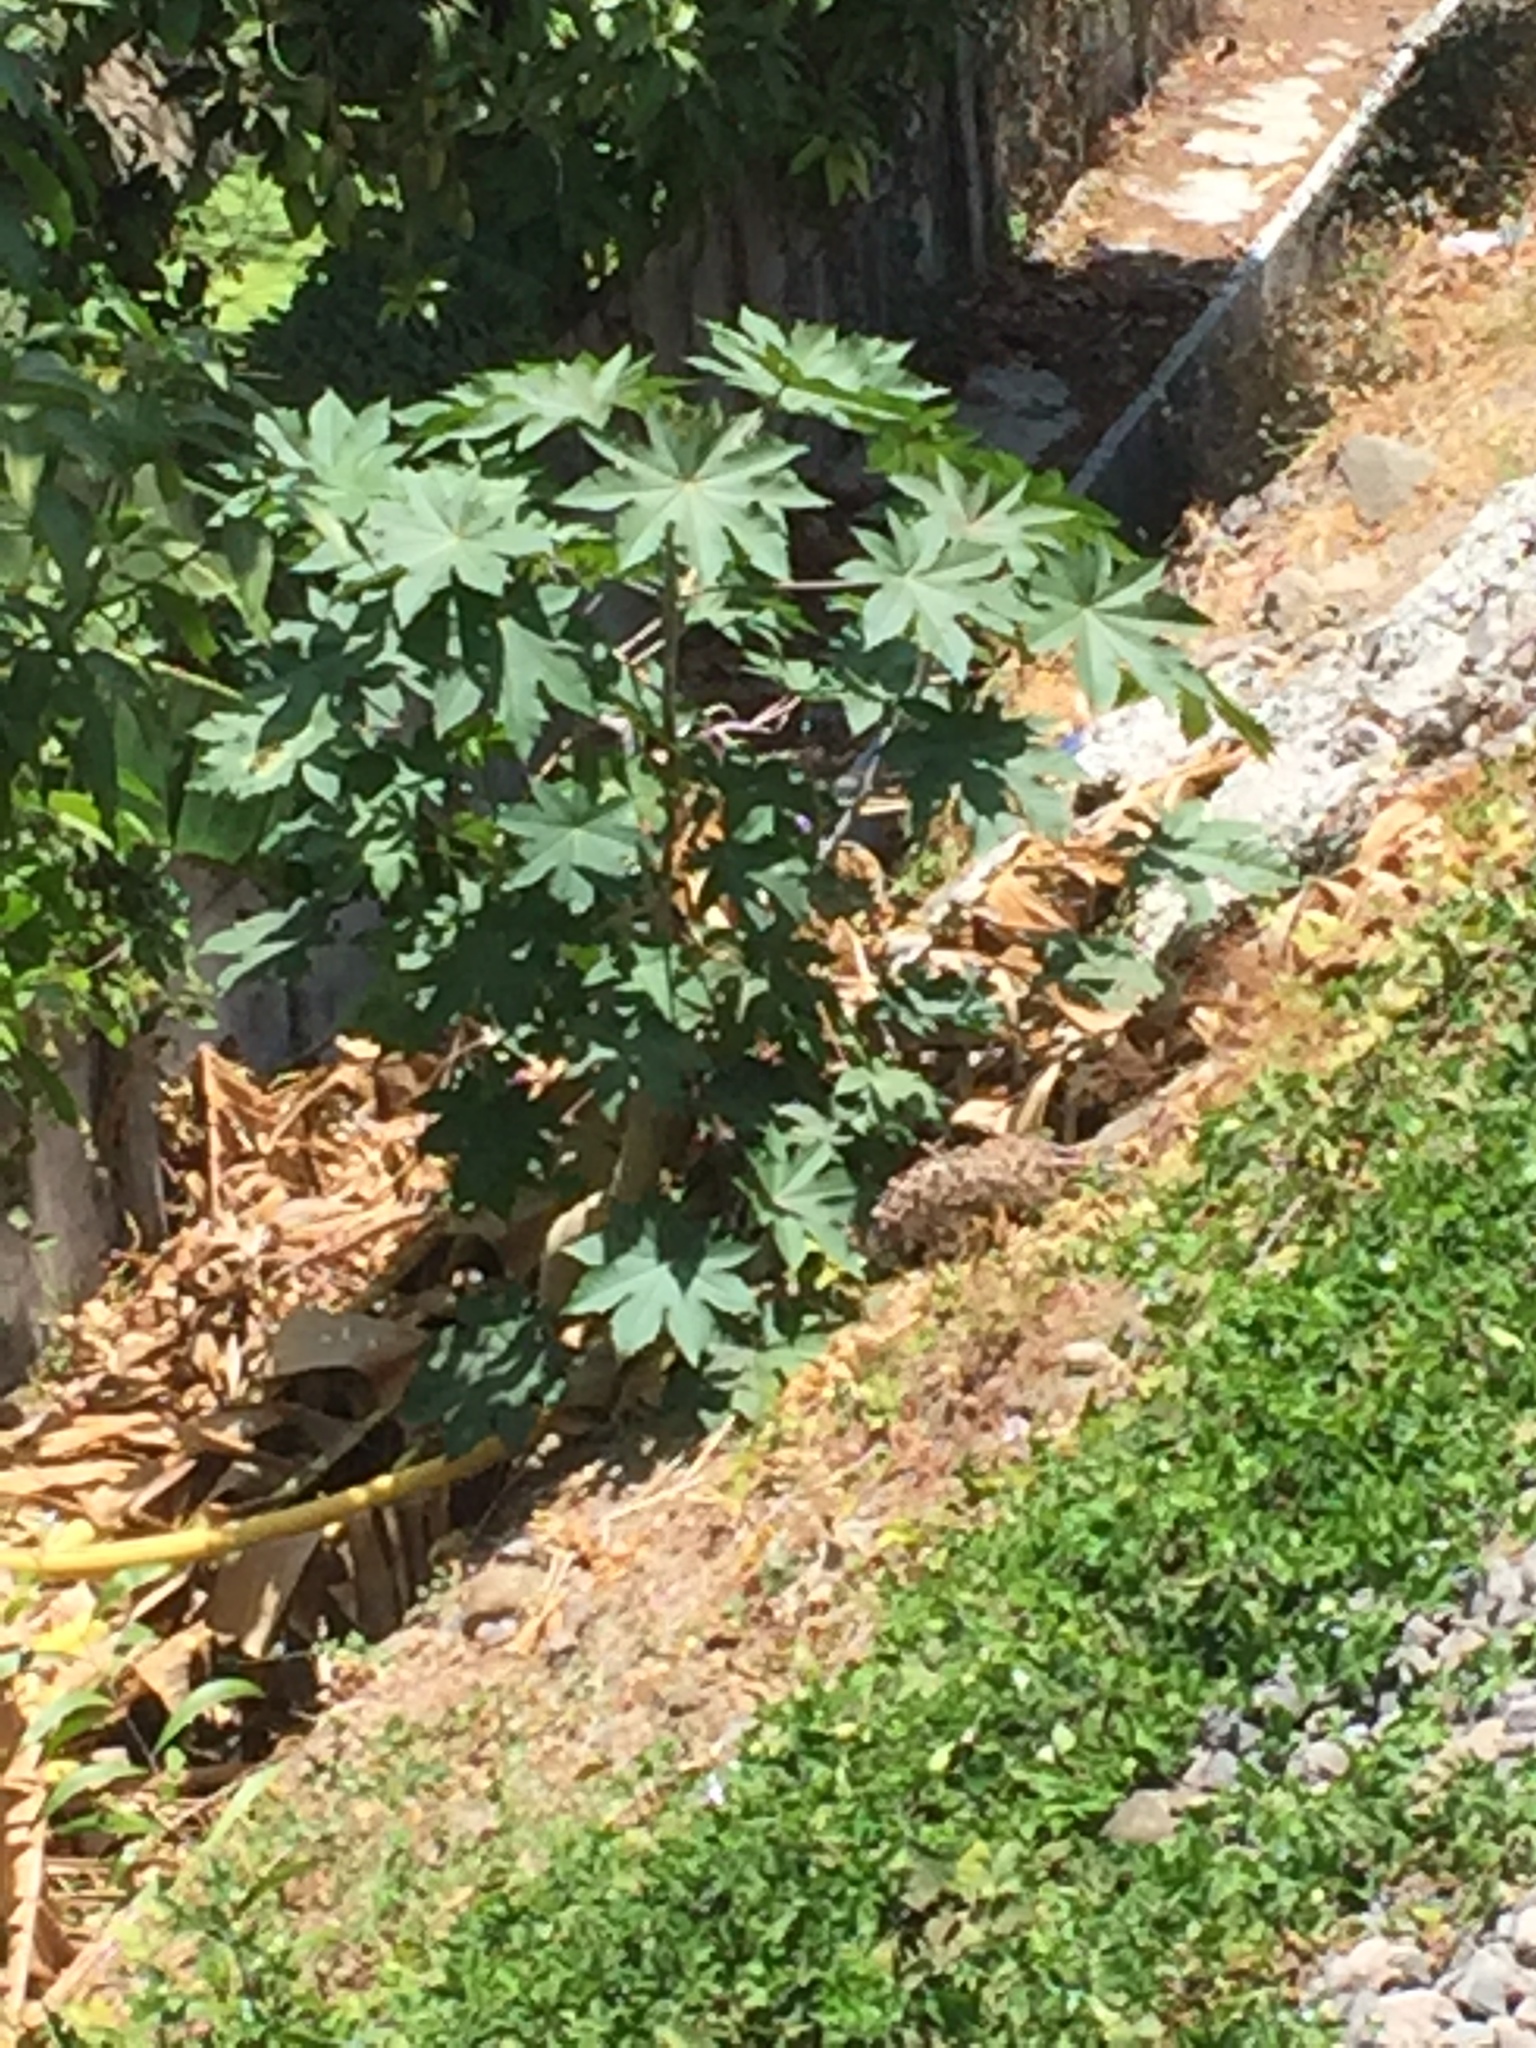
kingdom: Plantae
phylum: Tracheophyta
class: Magnoliopsida
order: Malpighiales
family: Euphorbiaceae
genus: Ricinus
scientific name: Ricinus communis
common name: Castor-oil-plant
